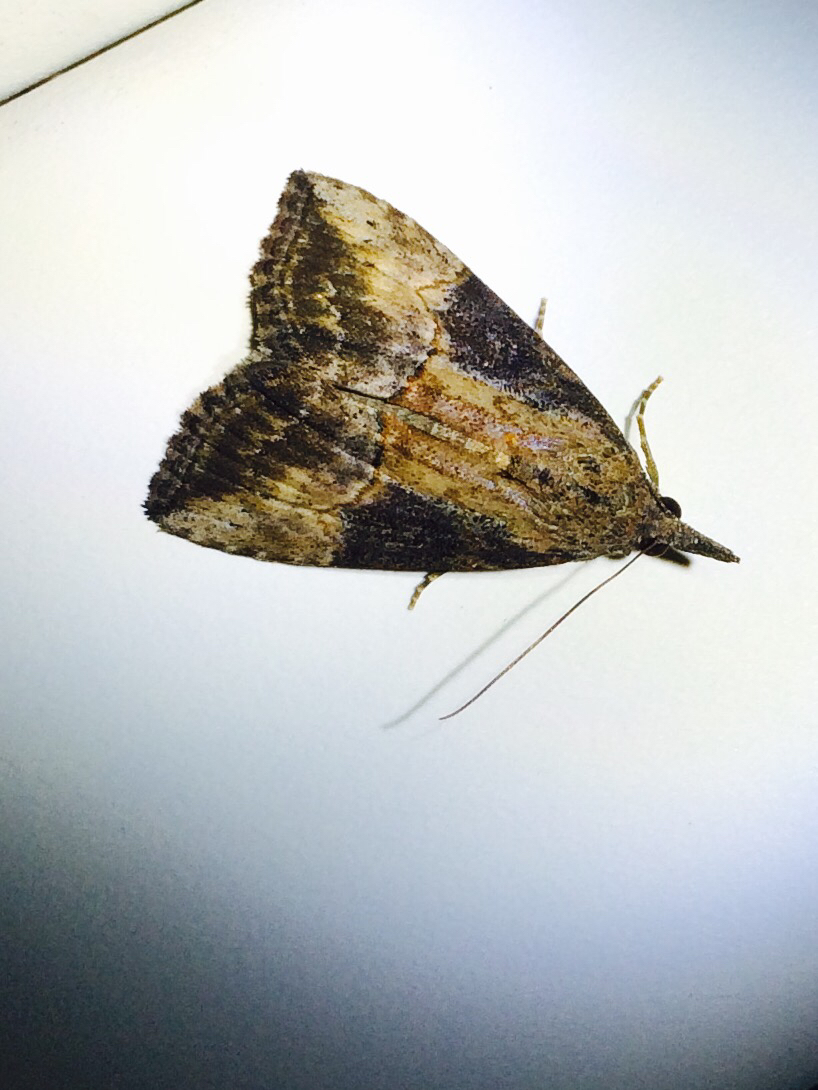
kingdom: Animalia
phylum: Arthropoda
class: Insecta
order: Lepidoptera
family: Erebidae
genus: Hypena
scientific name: Hypena scabra
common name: Green cloverworm
